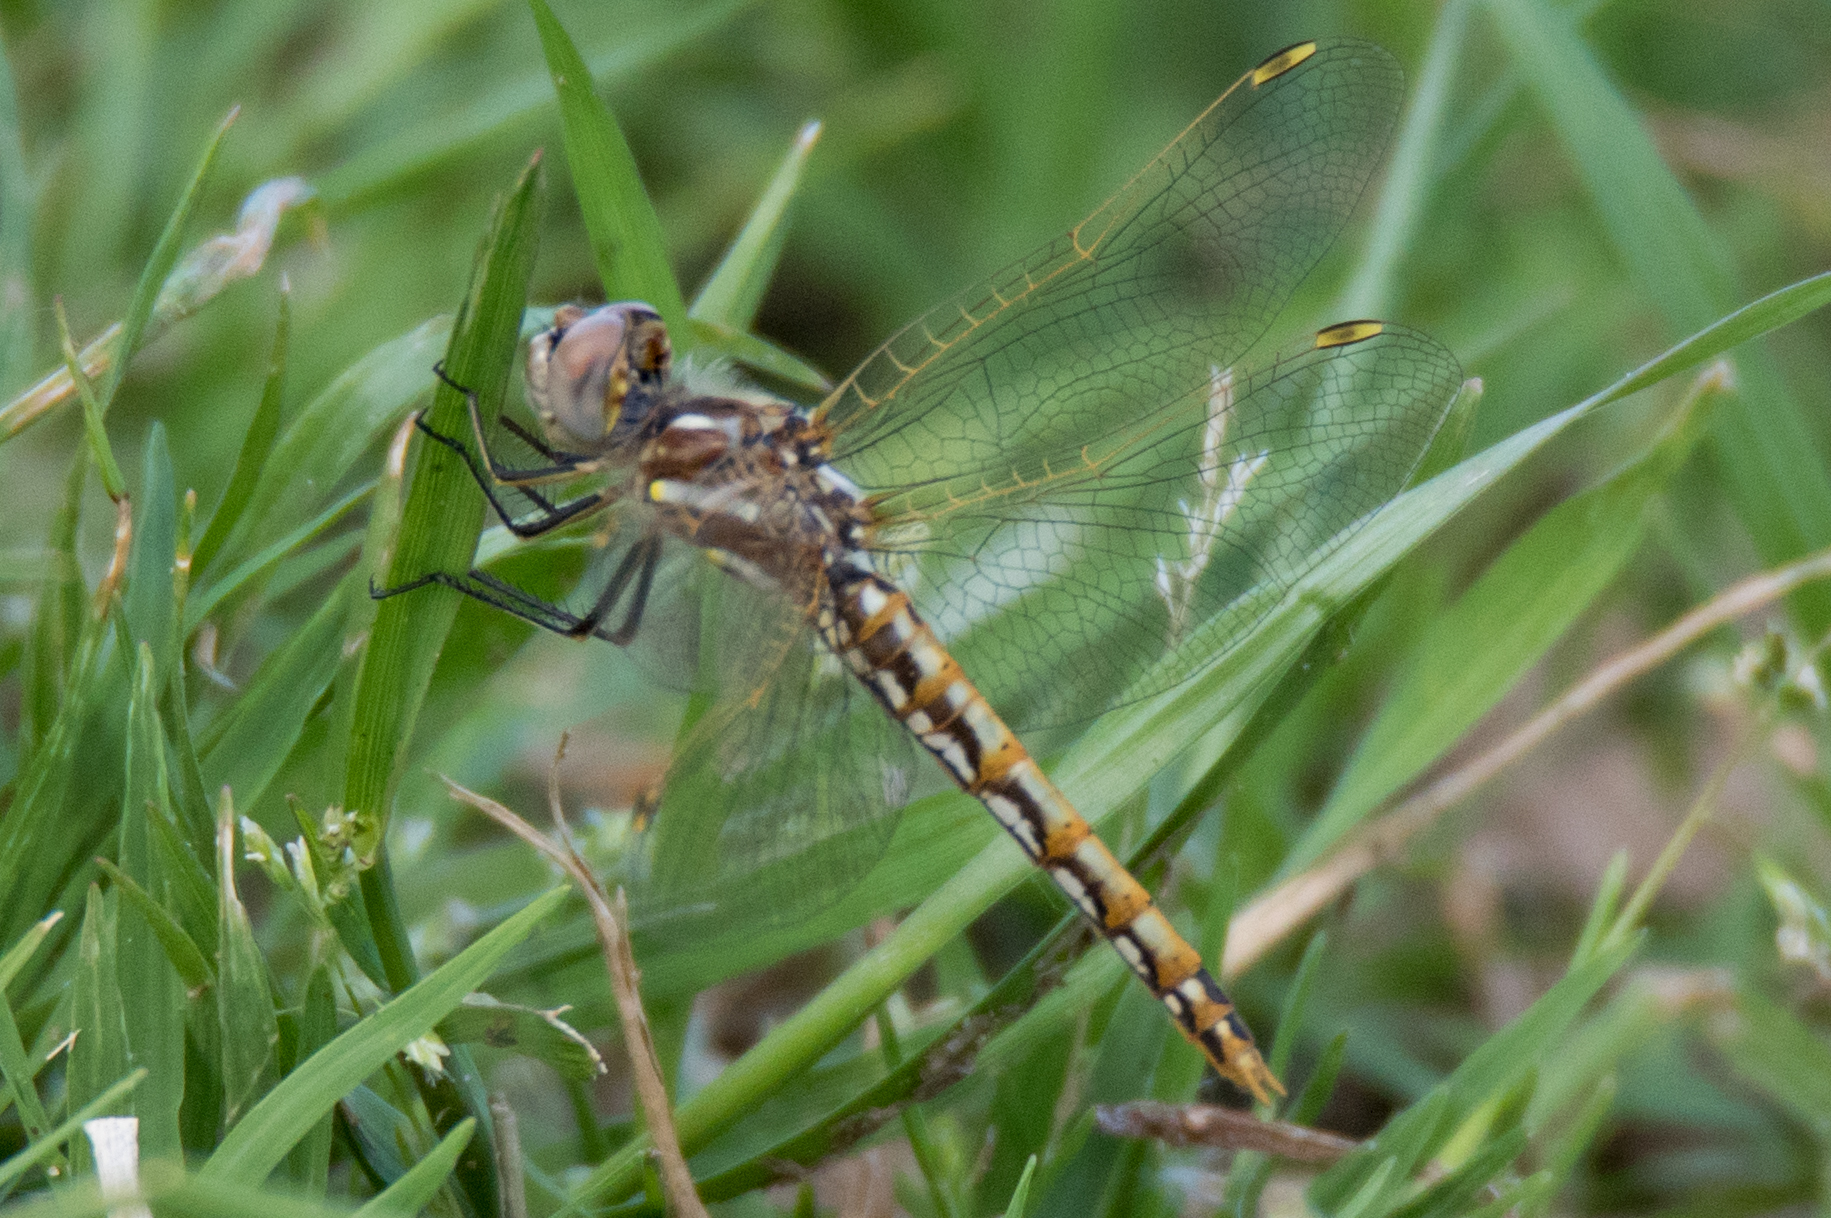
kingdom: Animalia
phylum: Arthropoda
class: Insecta
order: Odonata
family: Libellulidae
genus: Sympetrum
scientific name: Sympetrum corruptum
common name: Variegated meadowhawk
